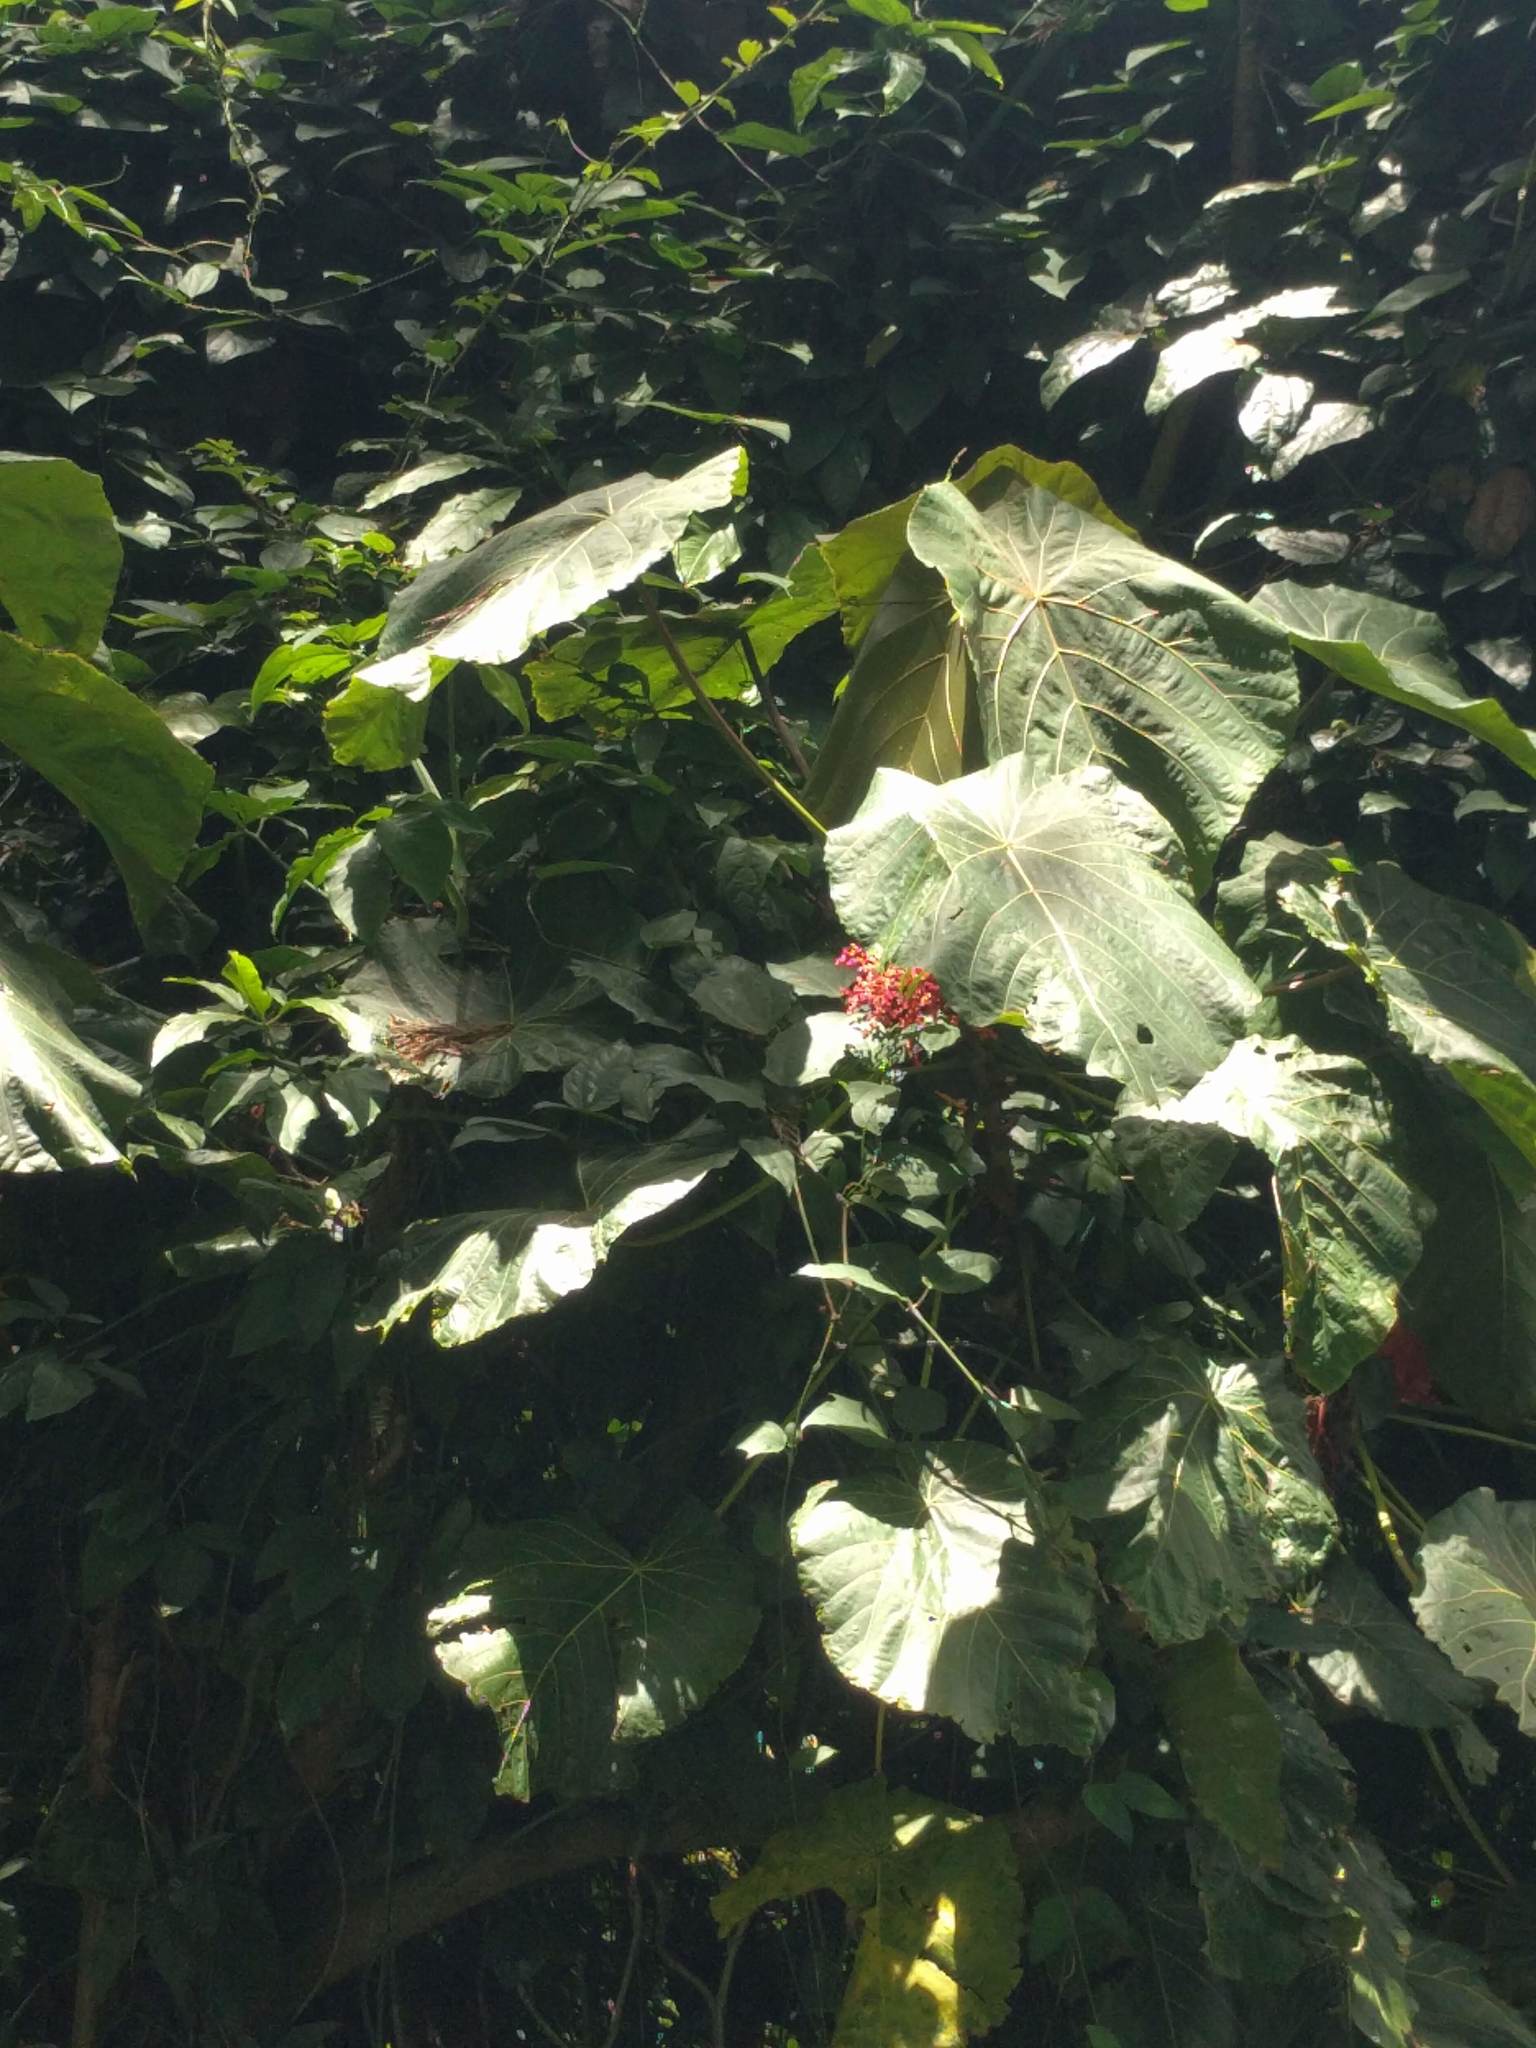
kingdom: Plantae
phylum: Tracheophyta
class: Magnoliopsida
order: Malpighiales
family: Euphorbiaceae
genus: Macaranga
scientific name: Macaranga mappa
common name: Pengua
